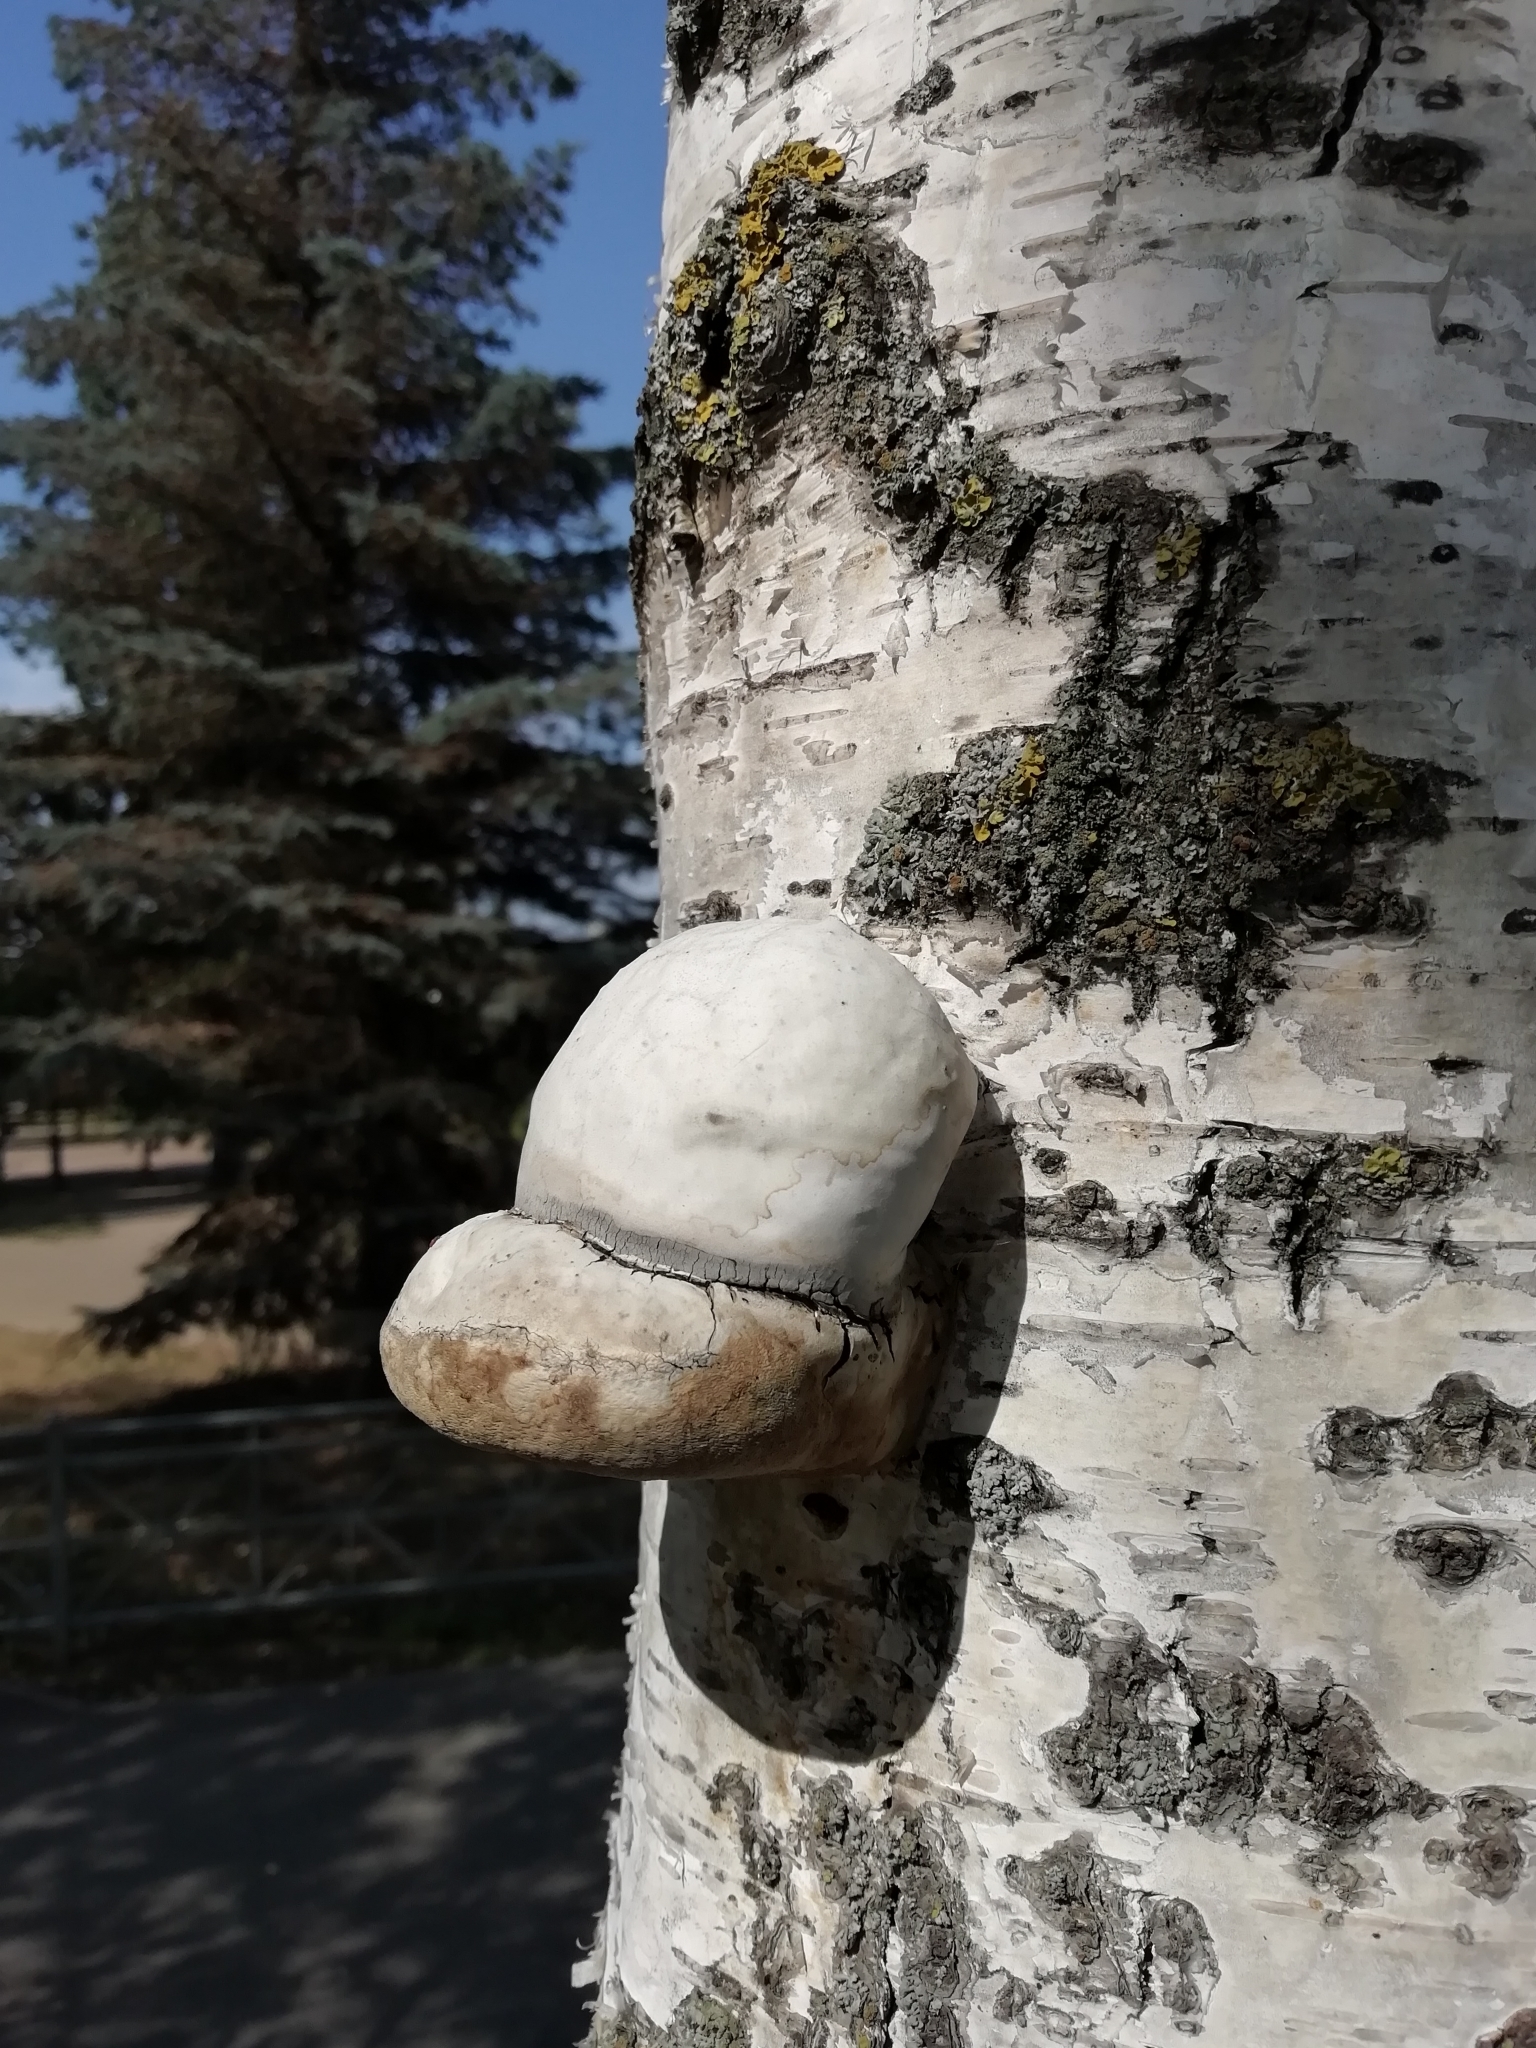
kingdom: Fungi
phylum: Basidiomycota
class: Agaricomycetes
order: Polyporales
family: Polyporaceae
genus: Fomes
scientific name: Fomes fomentarius
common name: Hoof fungus
